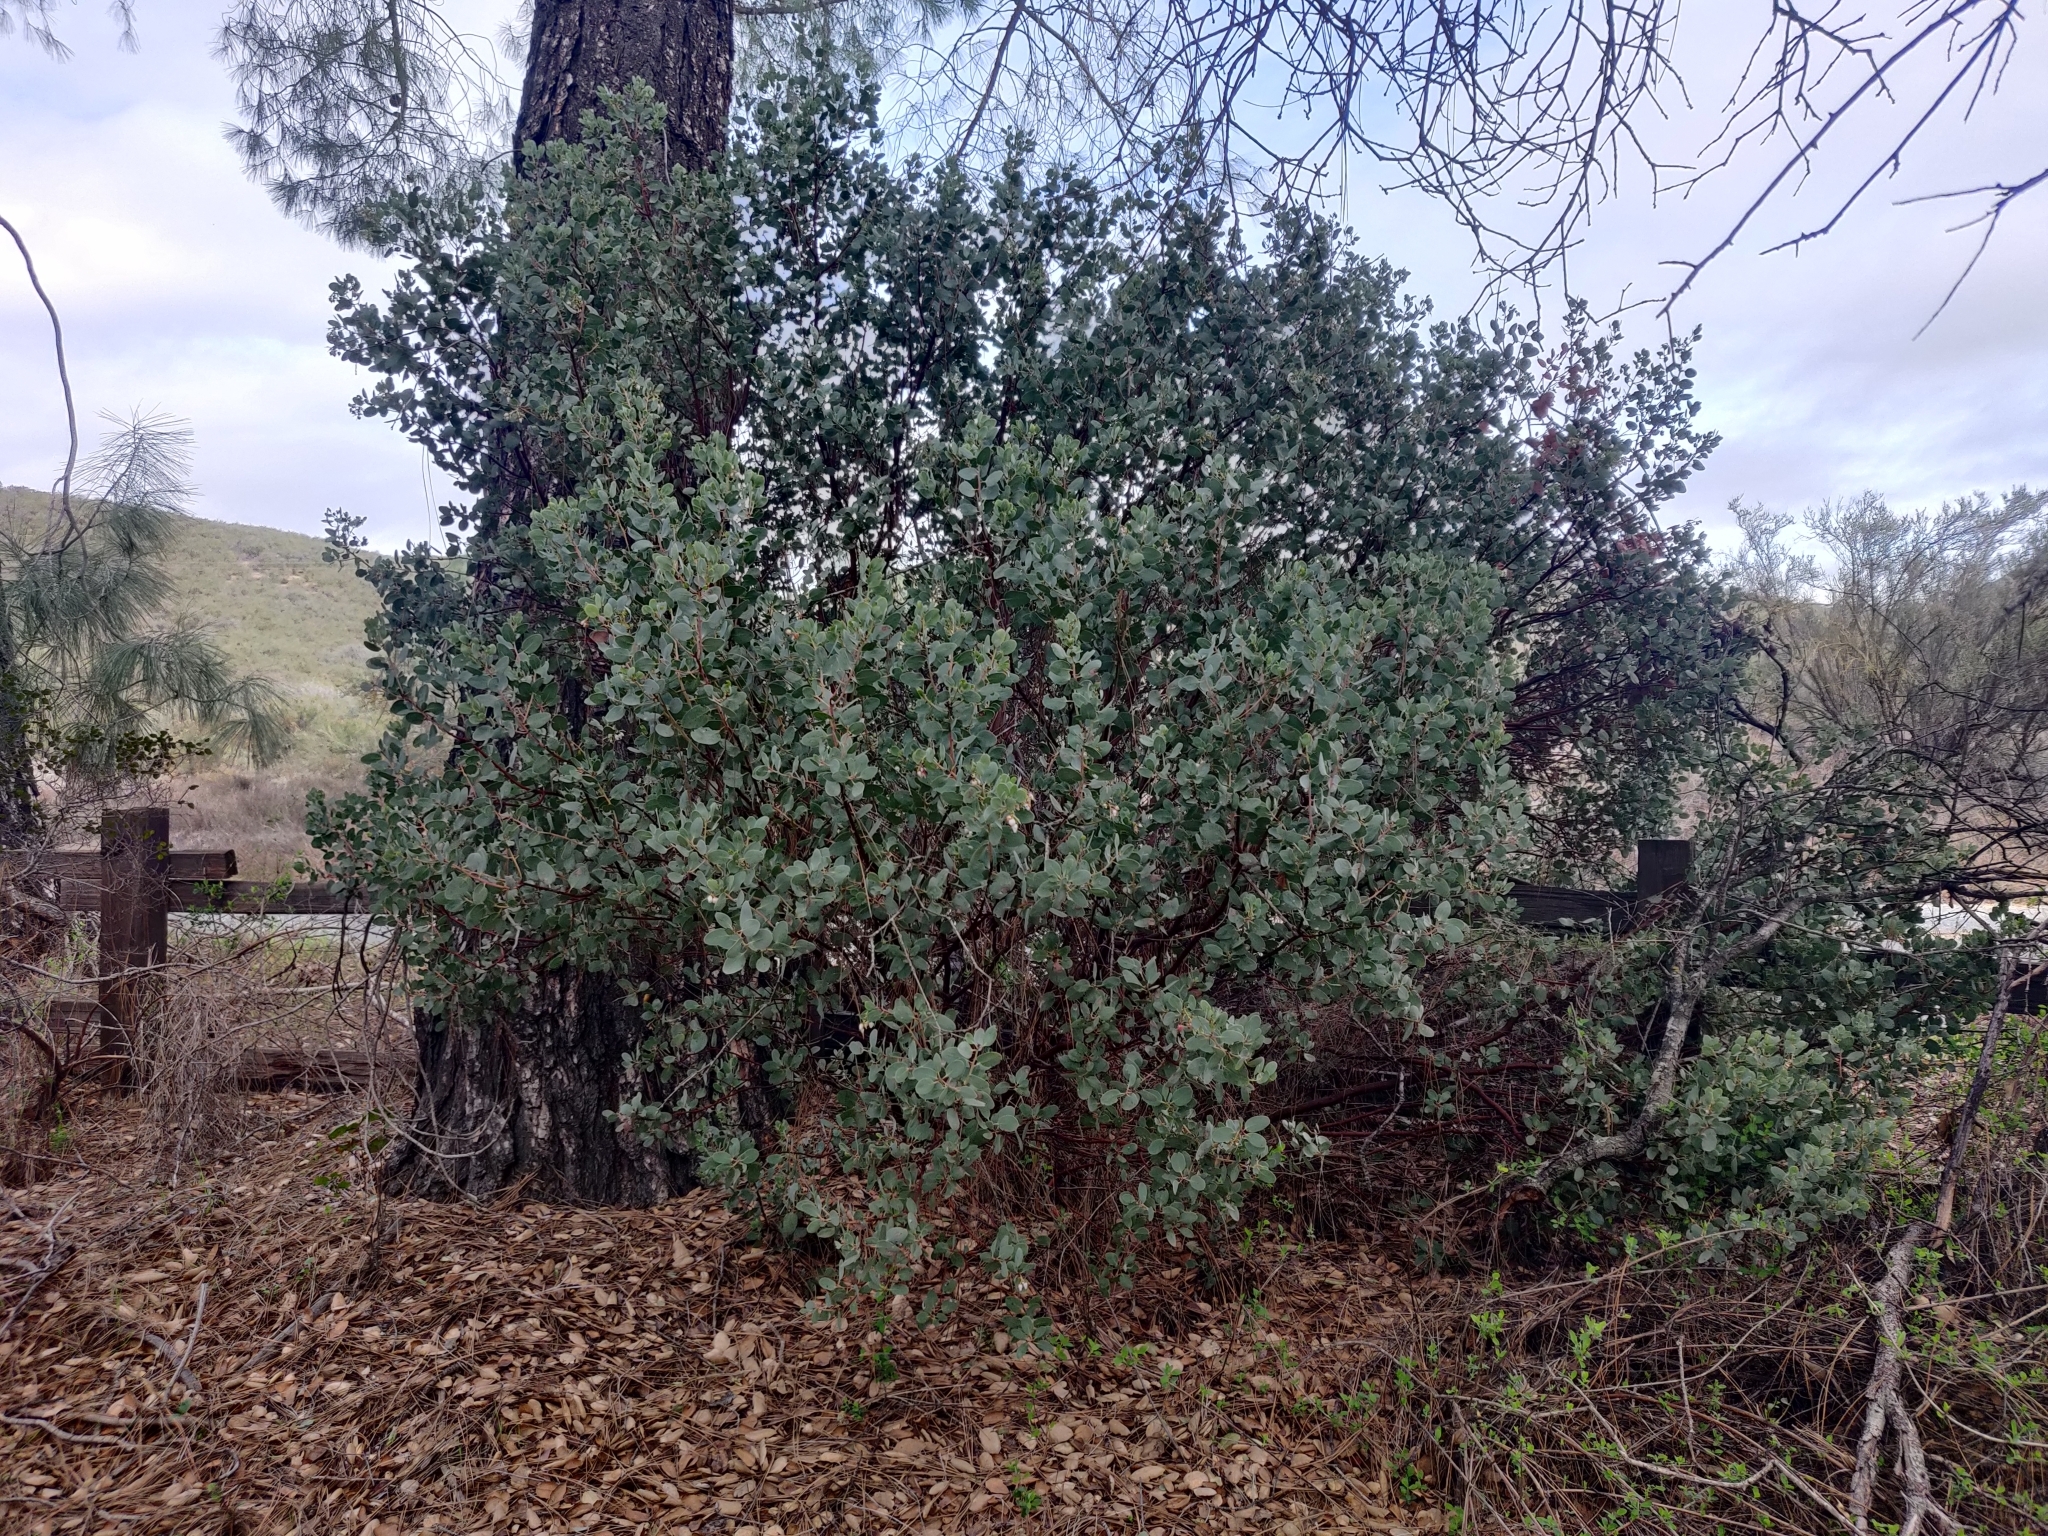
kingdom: Plantae
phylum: Tracheophyta
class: Magnoliopsida
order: Ericales
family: Ericaceae
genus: Arctostaphylos
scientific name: Arctostaphylos glauca
